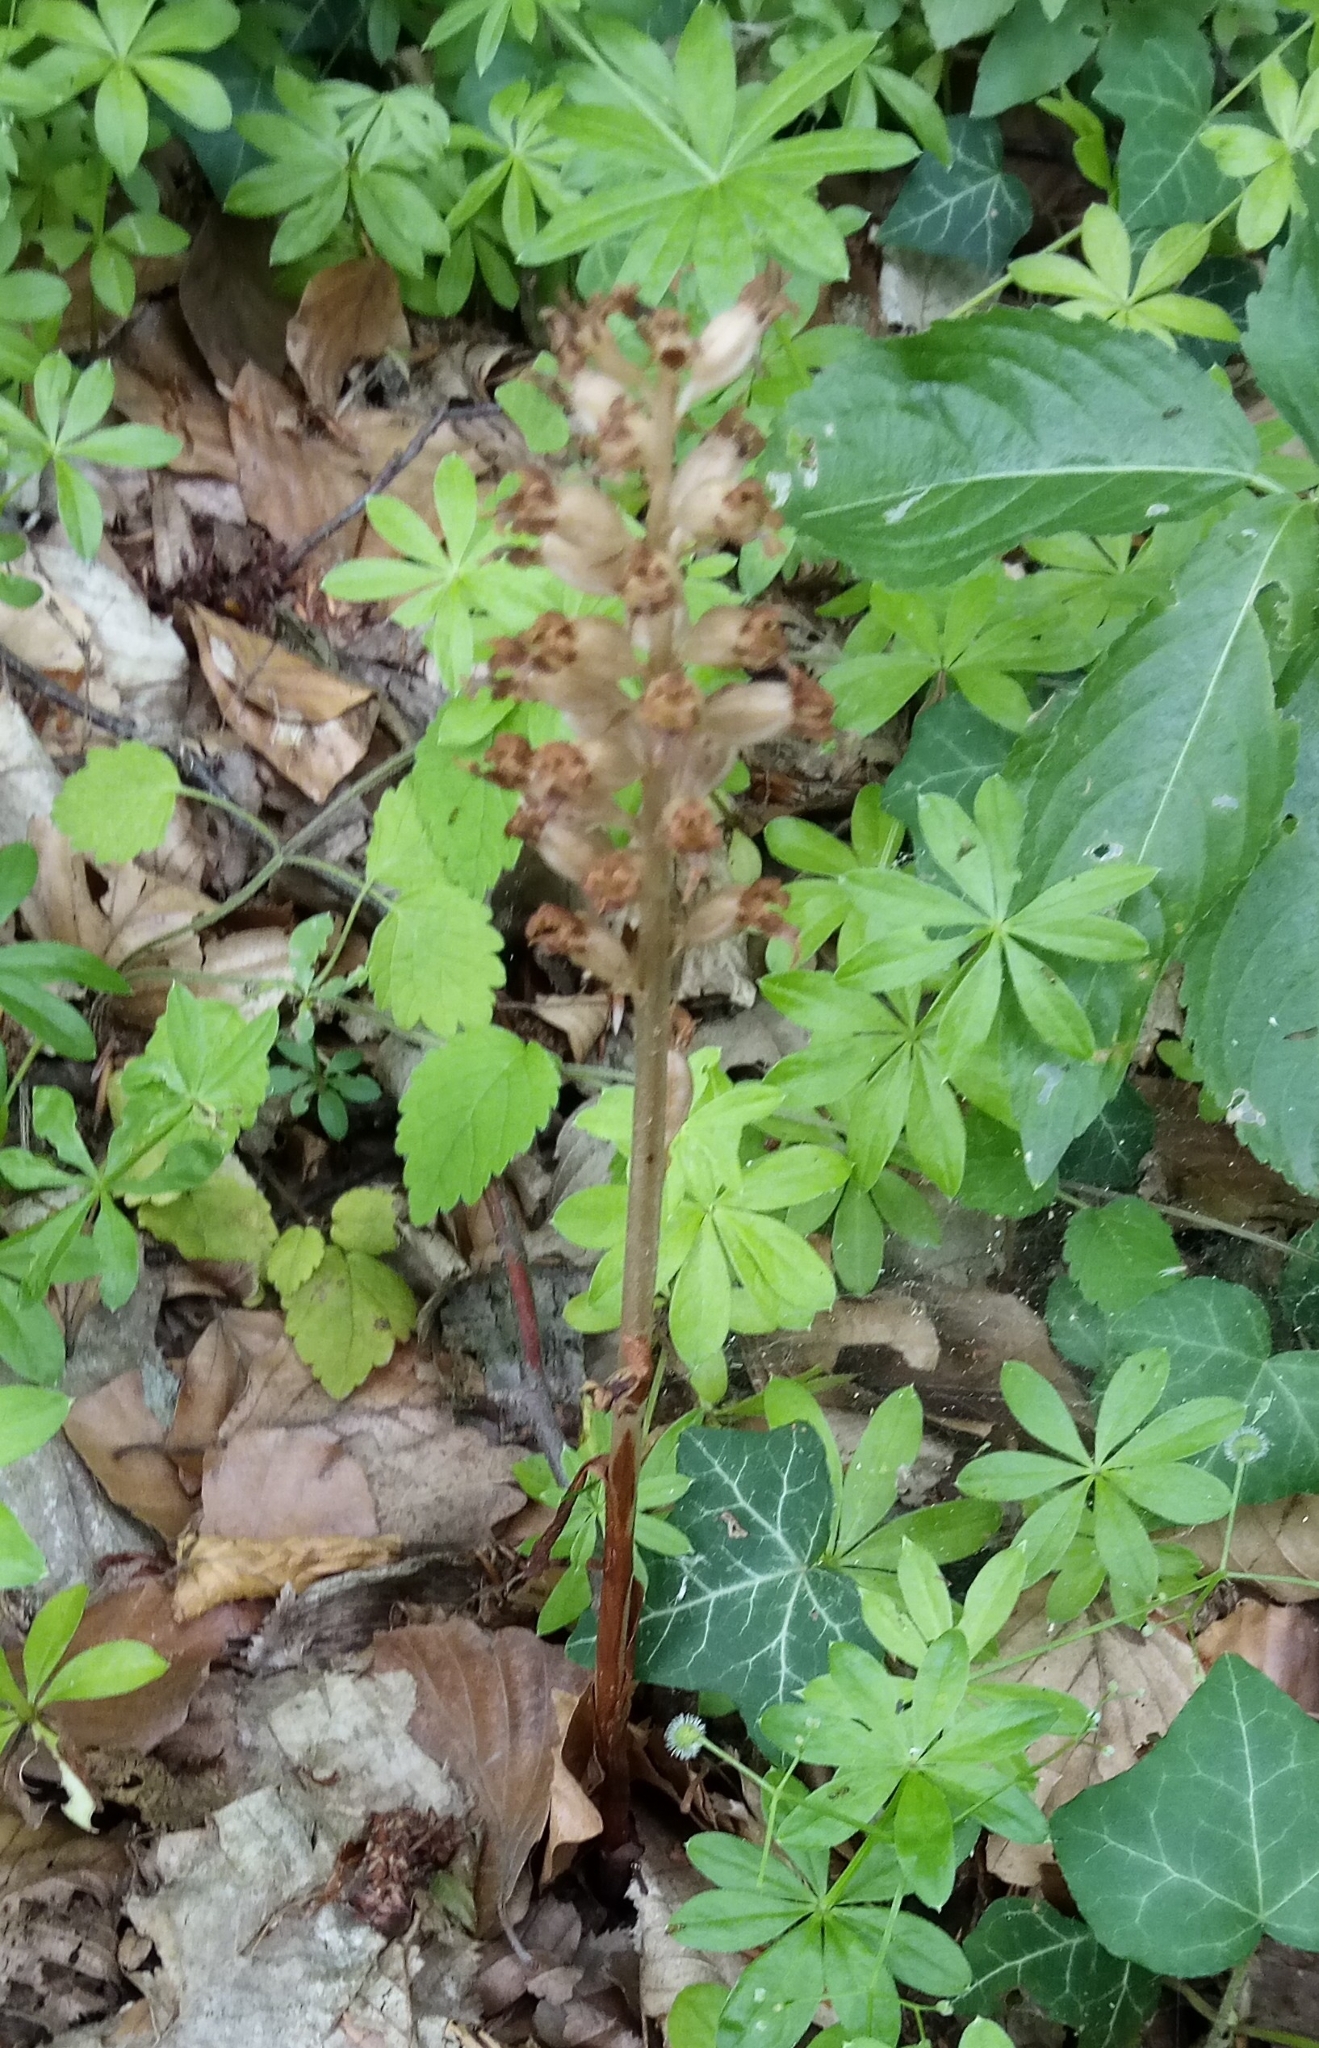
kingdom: Plantae
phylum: Tracheophyta
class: Liliopsida
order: Asparagales
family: Orchidaceae
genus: Neottia
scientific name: Neottia nidus-avis
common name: Bird's-nest orchid
